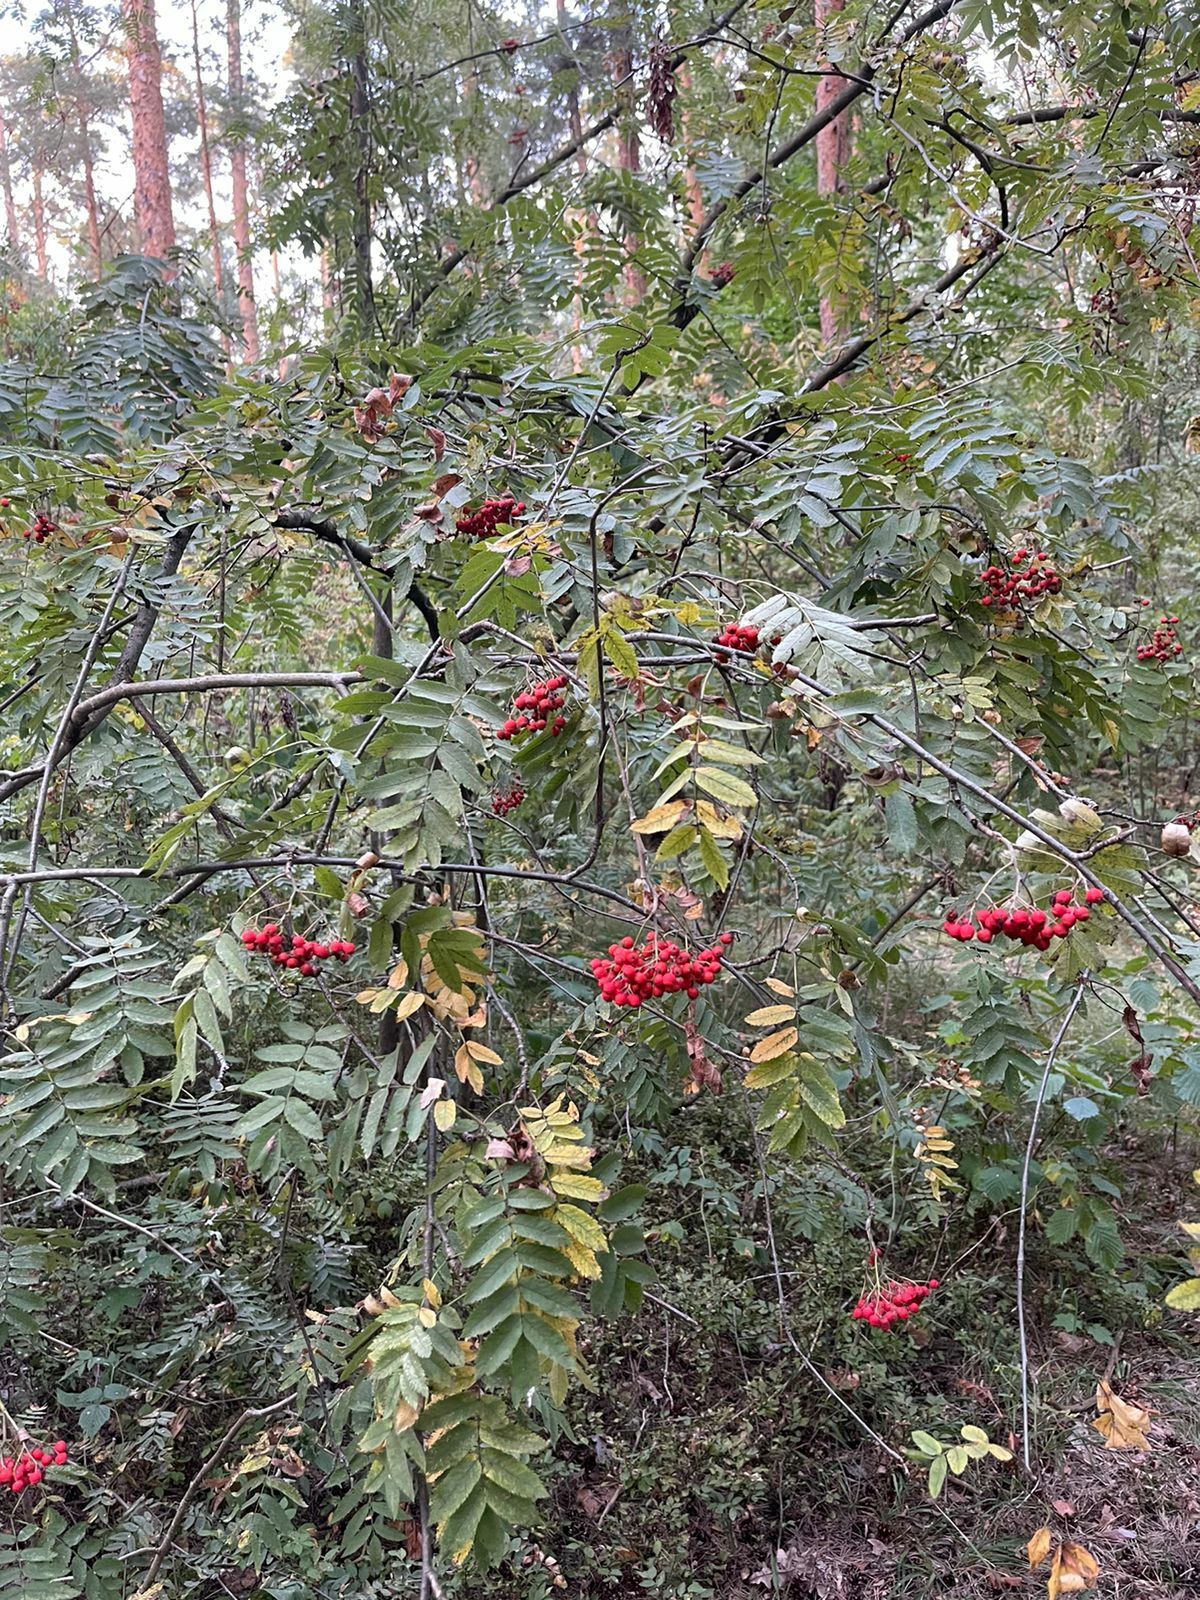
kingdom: Plantae
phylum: Tracheophyta
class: Magnoliopsida
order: Rosales
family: Rosaceae
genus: Sorbus
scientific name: Sorbus aucuparia
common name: Rowan
